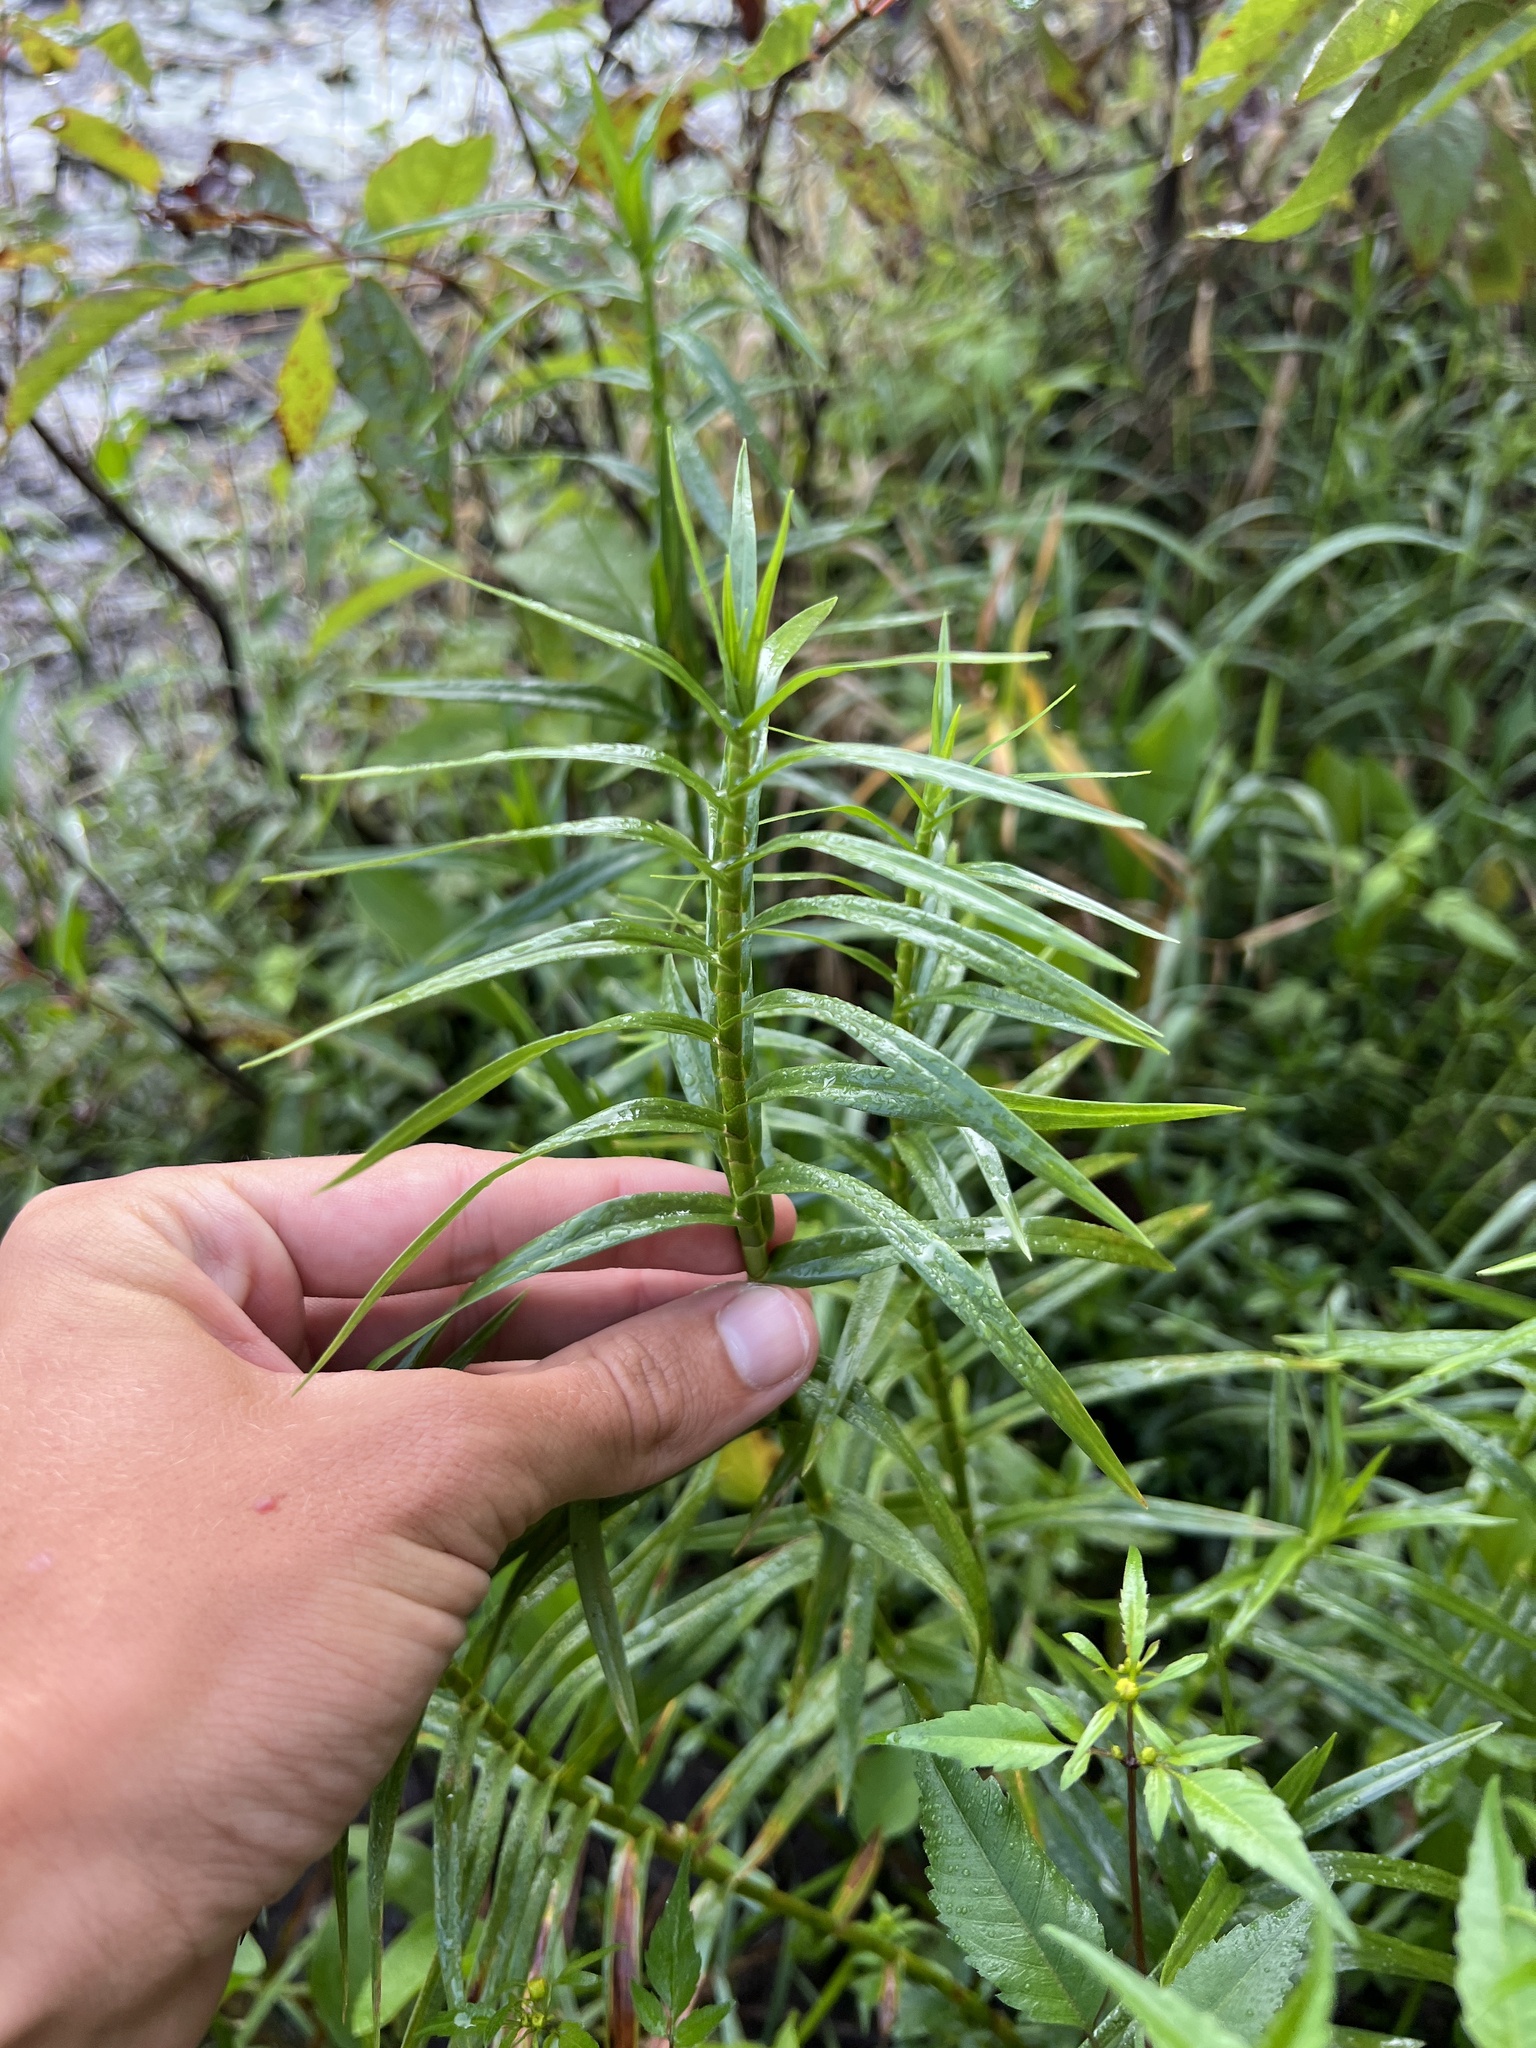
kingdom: Plantae
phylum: Tracheophyta
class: Liliopsida
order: Poales
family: Cyperaceae
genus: Dulichium
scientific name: Dulichium arundinaceum
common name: Three-way sedge
